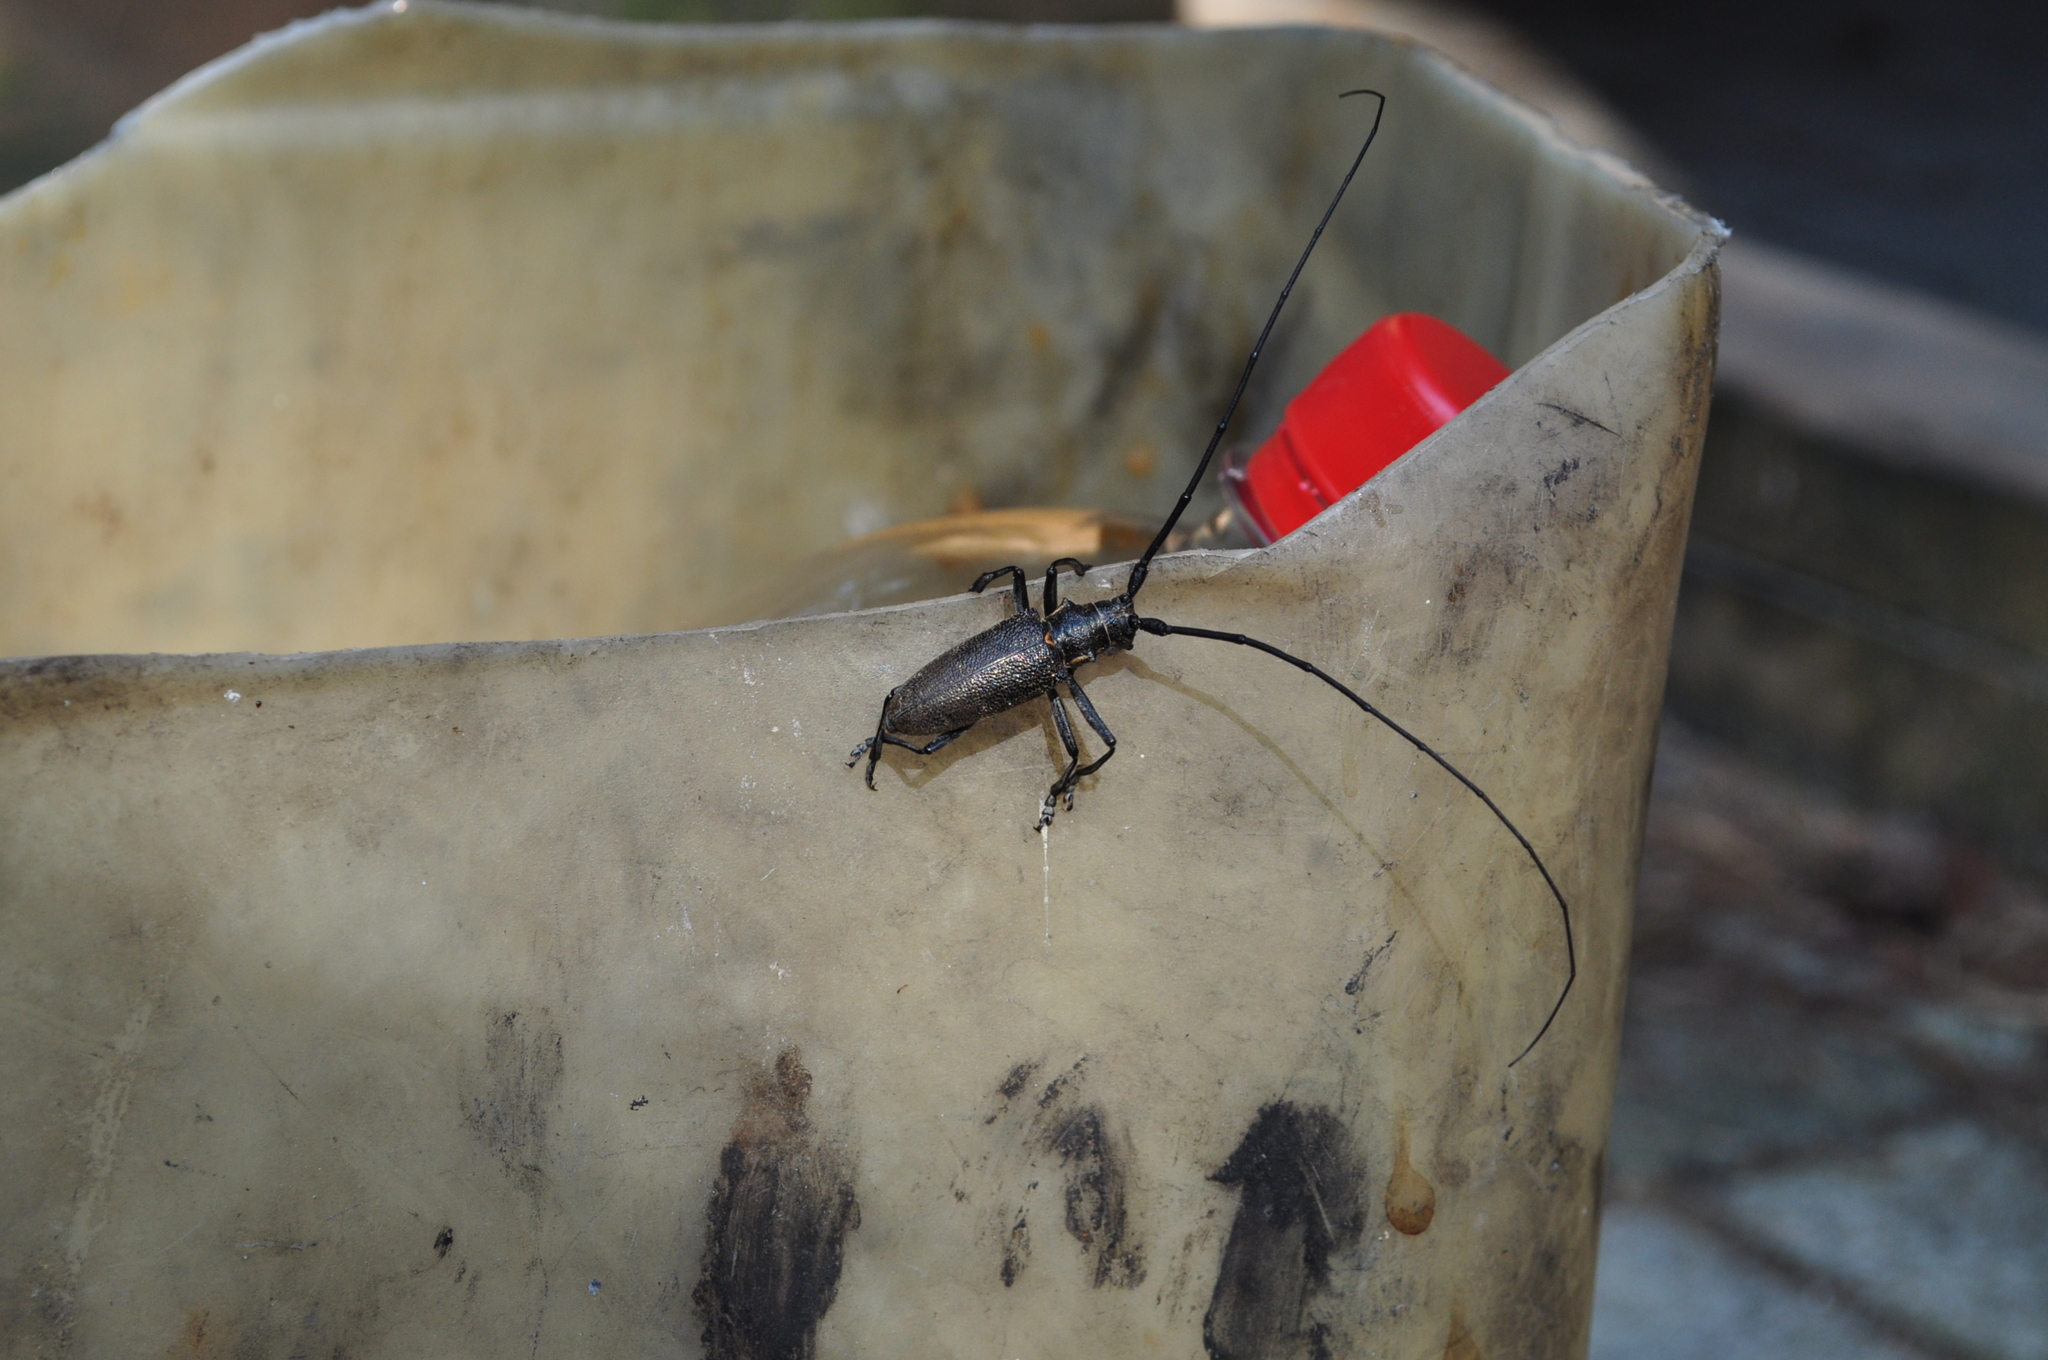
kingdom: Animalia
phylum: Arthropoda
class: Insecta
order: Coleoptera
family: Cerambycidae
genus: Monochamus
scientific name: Monochamus galloprovincialis
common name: Pine sawyer
